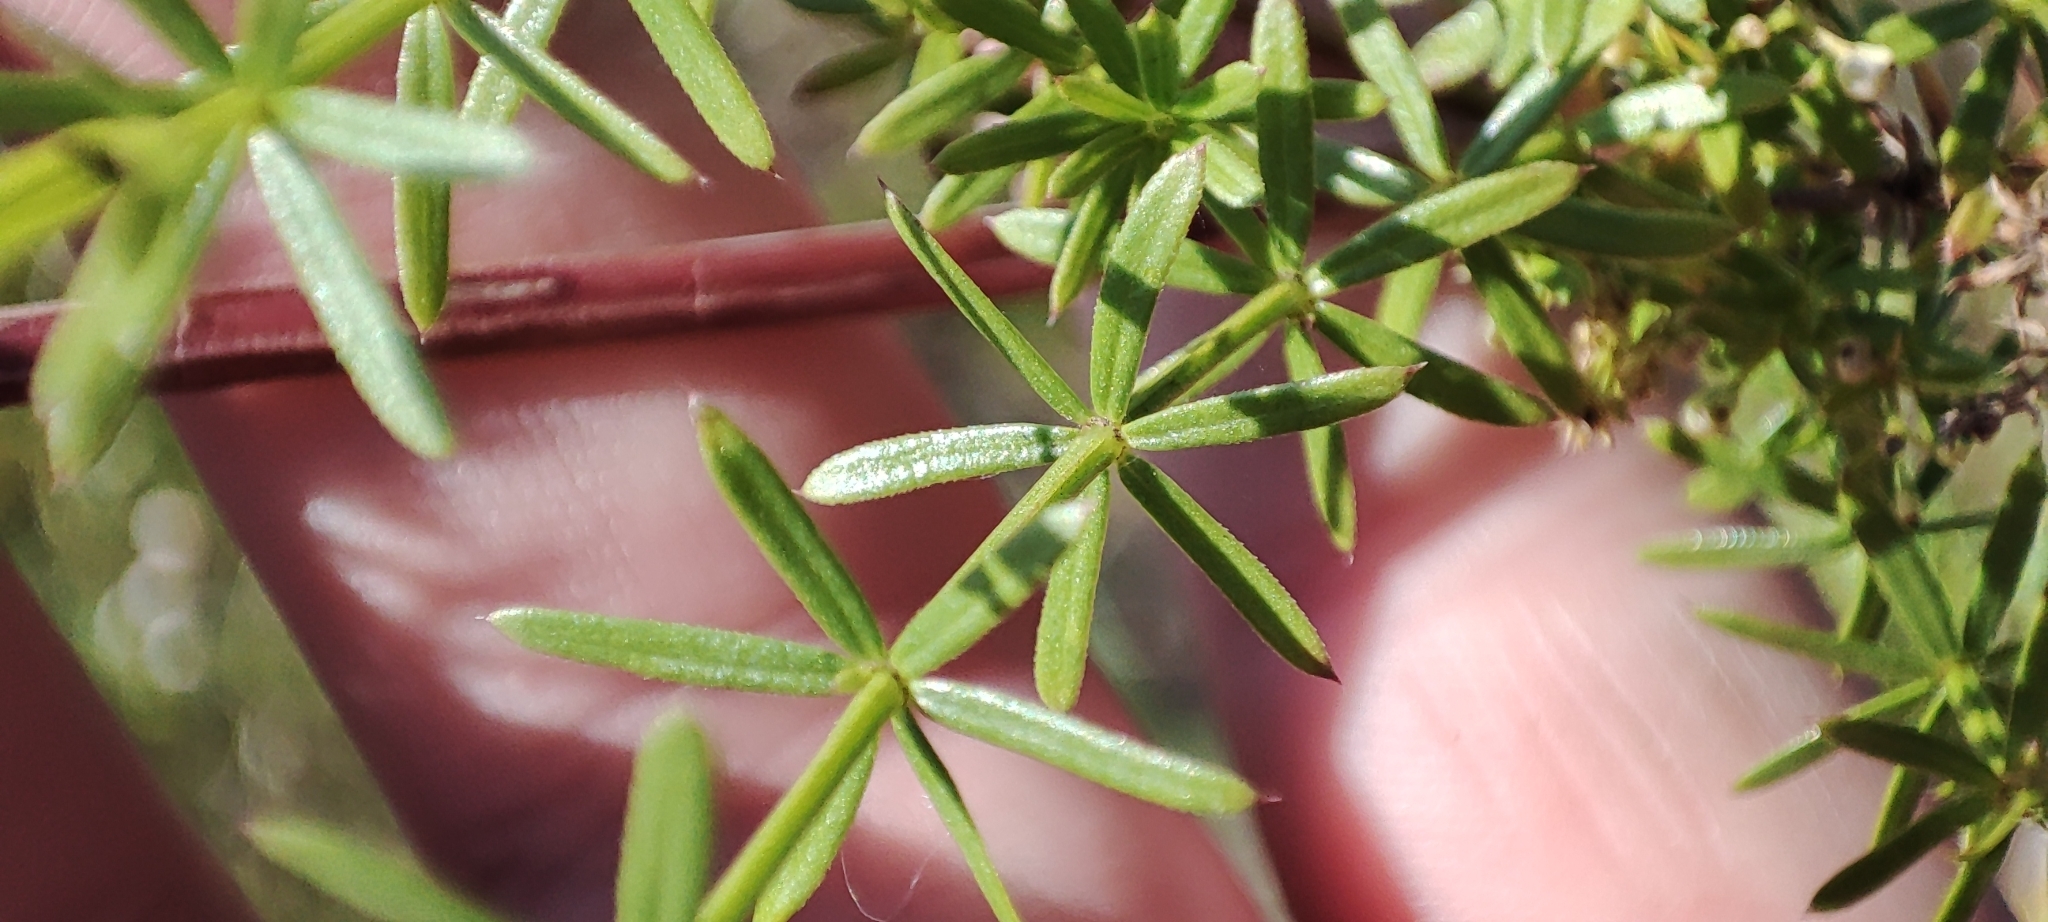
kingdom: Plantae
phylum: Tracheophyta
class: Magnoliopsida
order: Gentianales
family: Rubiaceae
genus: Galium
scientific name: Galium mollugo
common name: Hedge bedstraw
